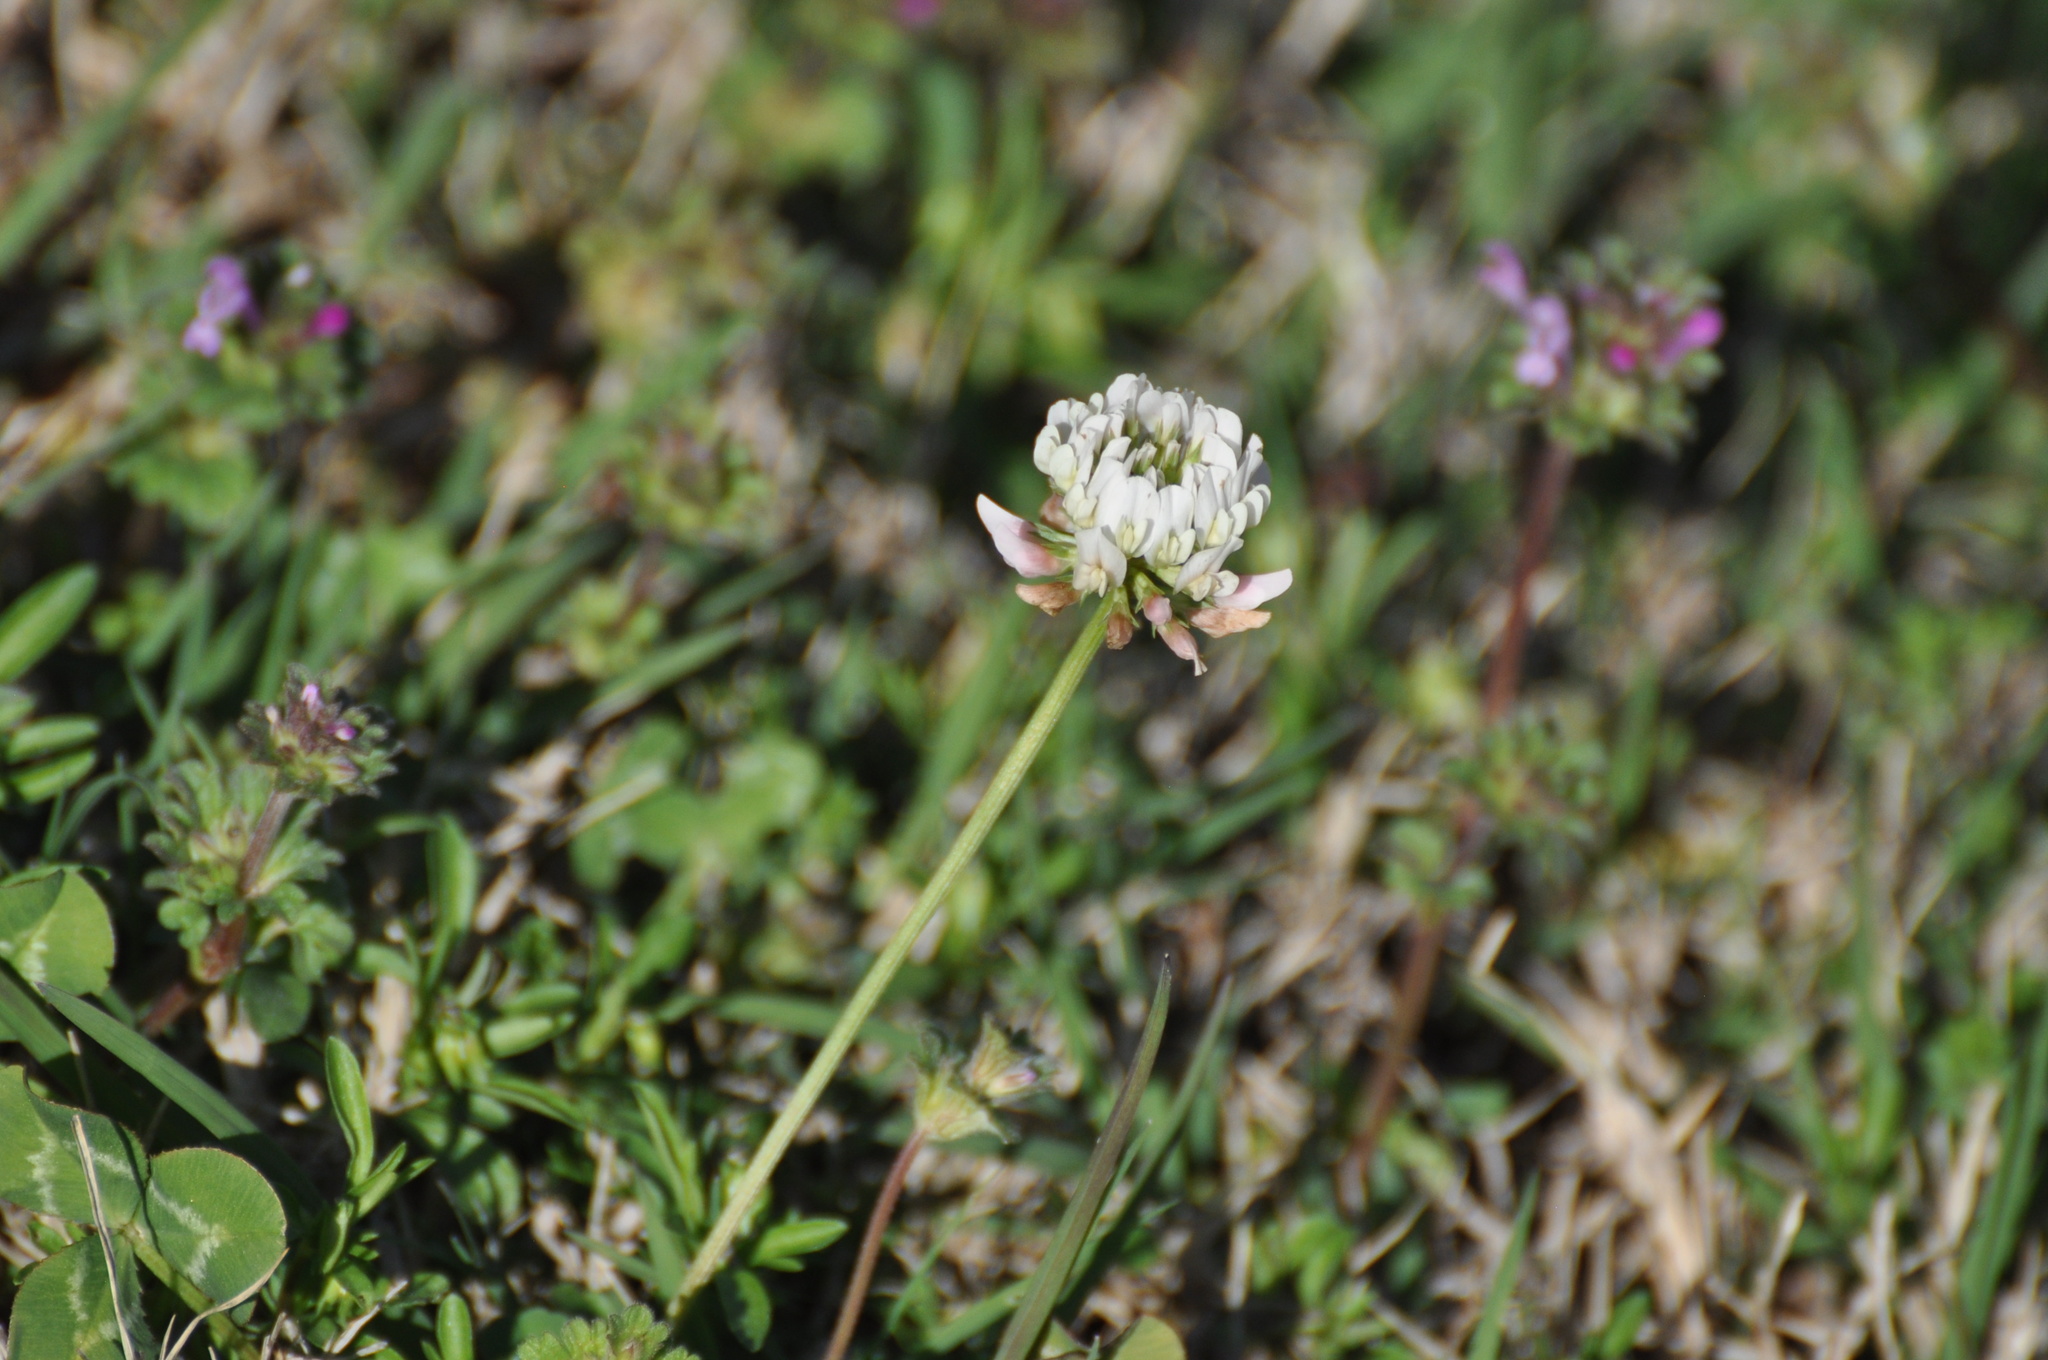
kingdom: Plantae
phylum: Tracheophyta
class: Magnoliopsida
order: Fabales
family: Fabaceae
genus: Trifolium
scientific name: Trifolium repens
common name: White clover
